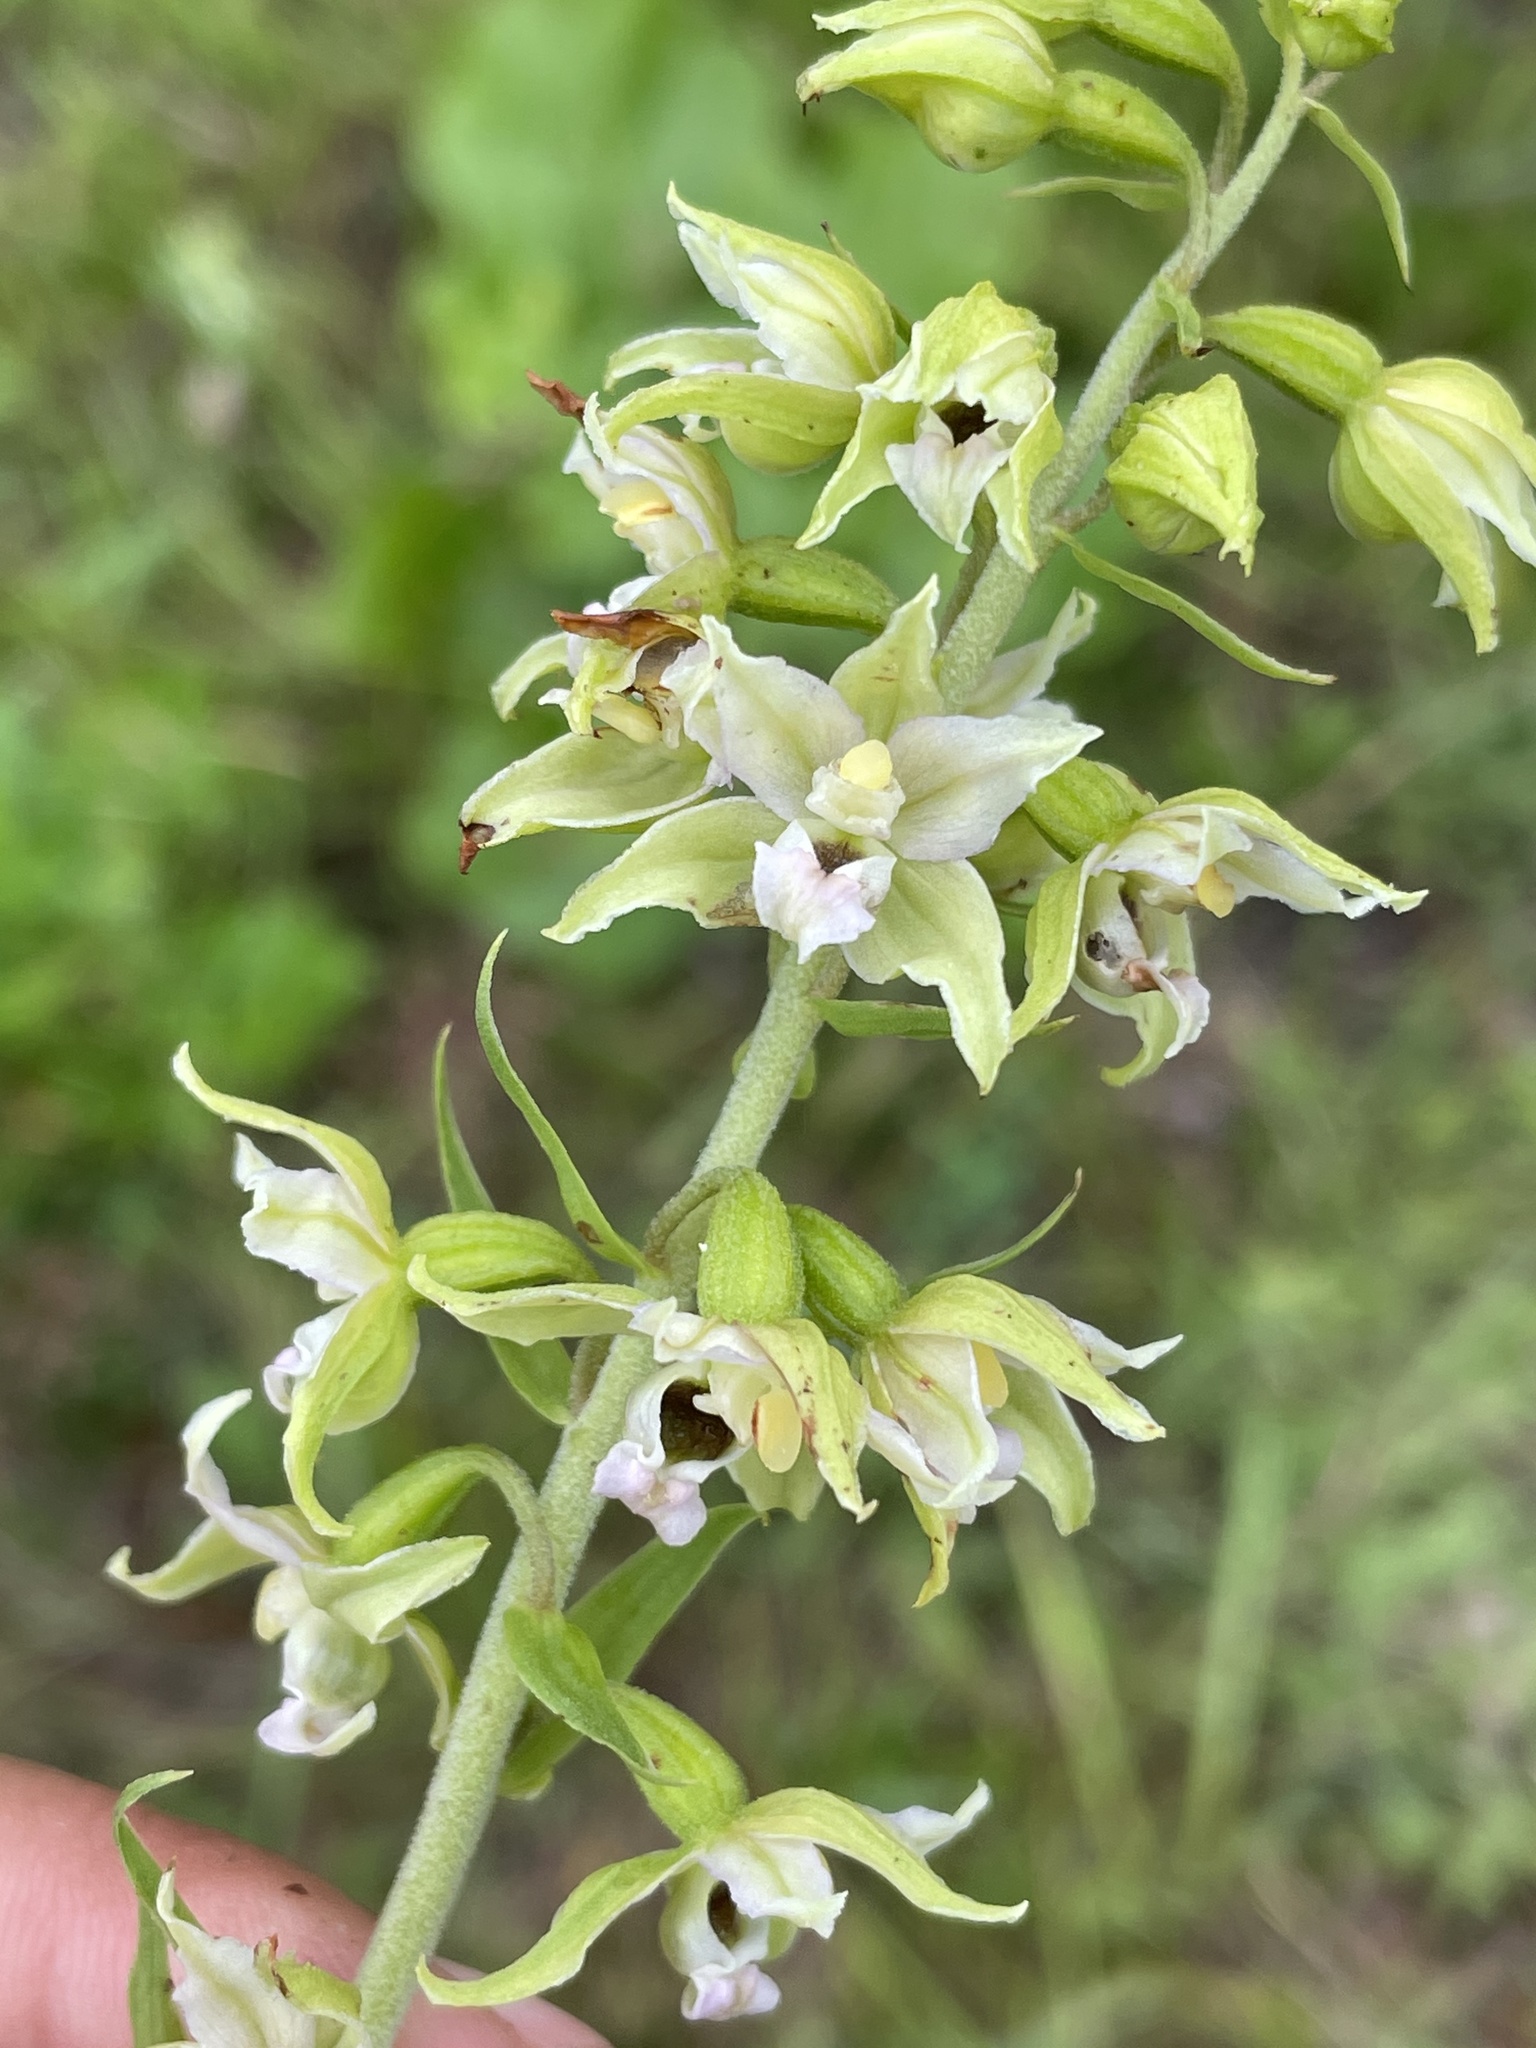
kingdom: Plantae
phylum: Tracheophyta
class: Liliopsida
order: Asparagales
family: Orchidaceae
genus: Epipactis
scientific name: Epipactis helleborine
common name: Broad-leaved helleborine
